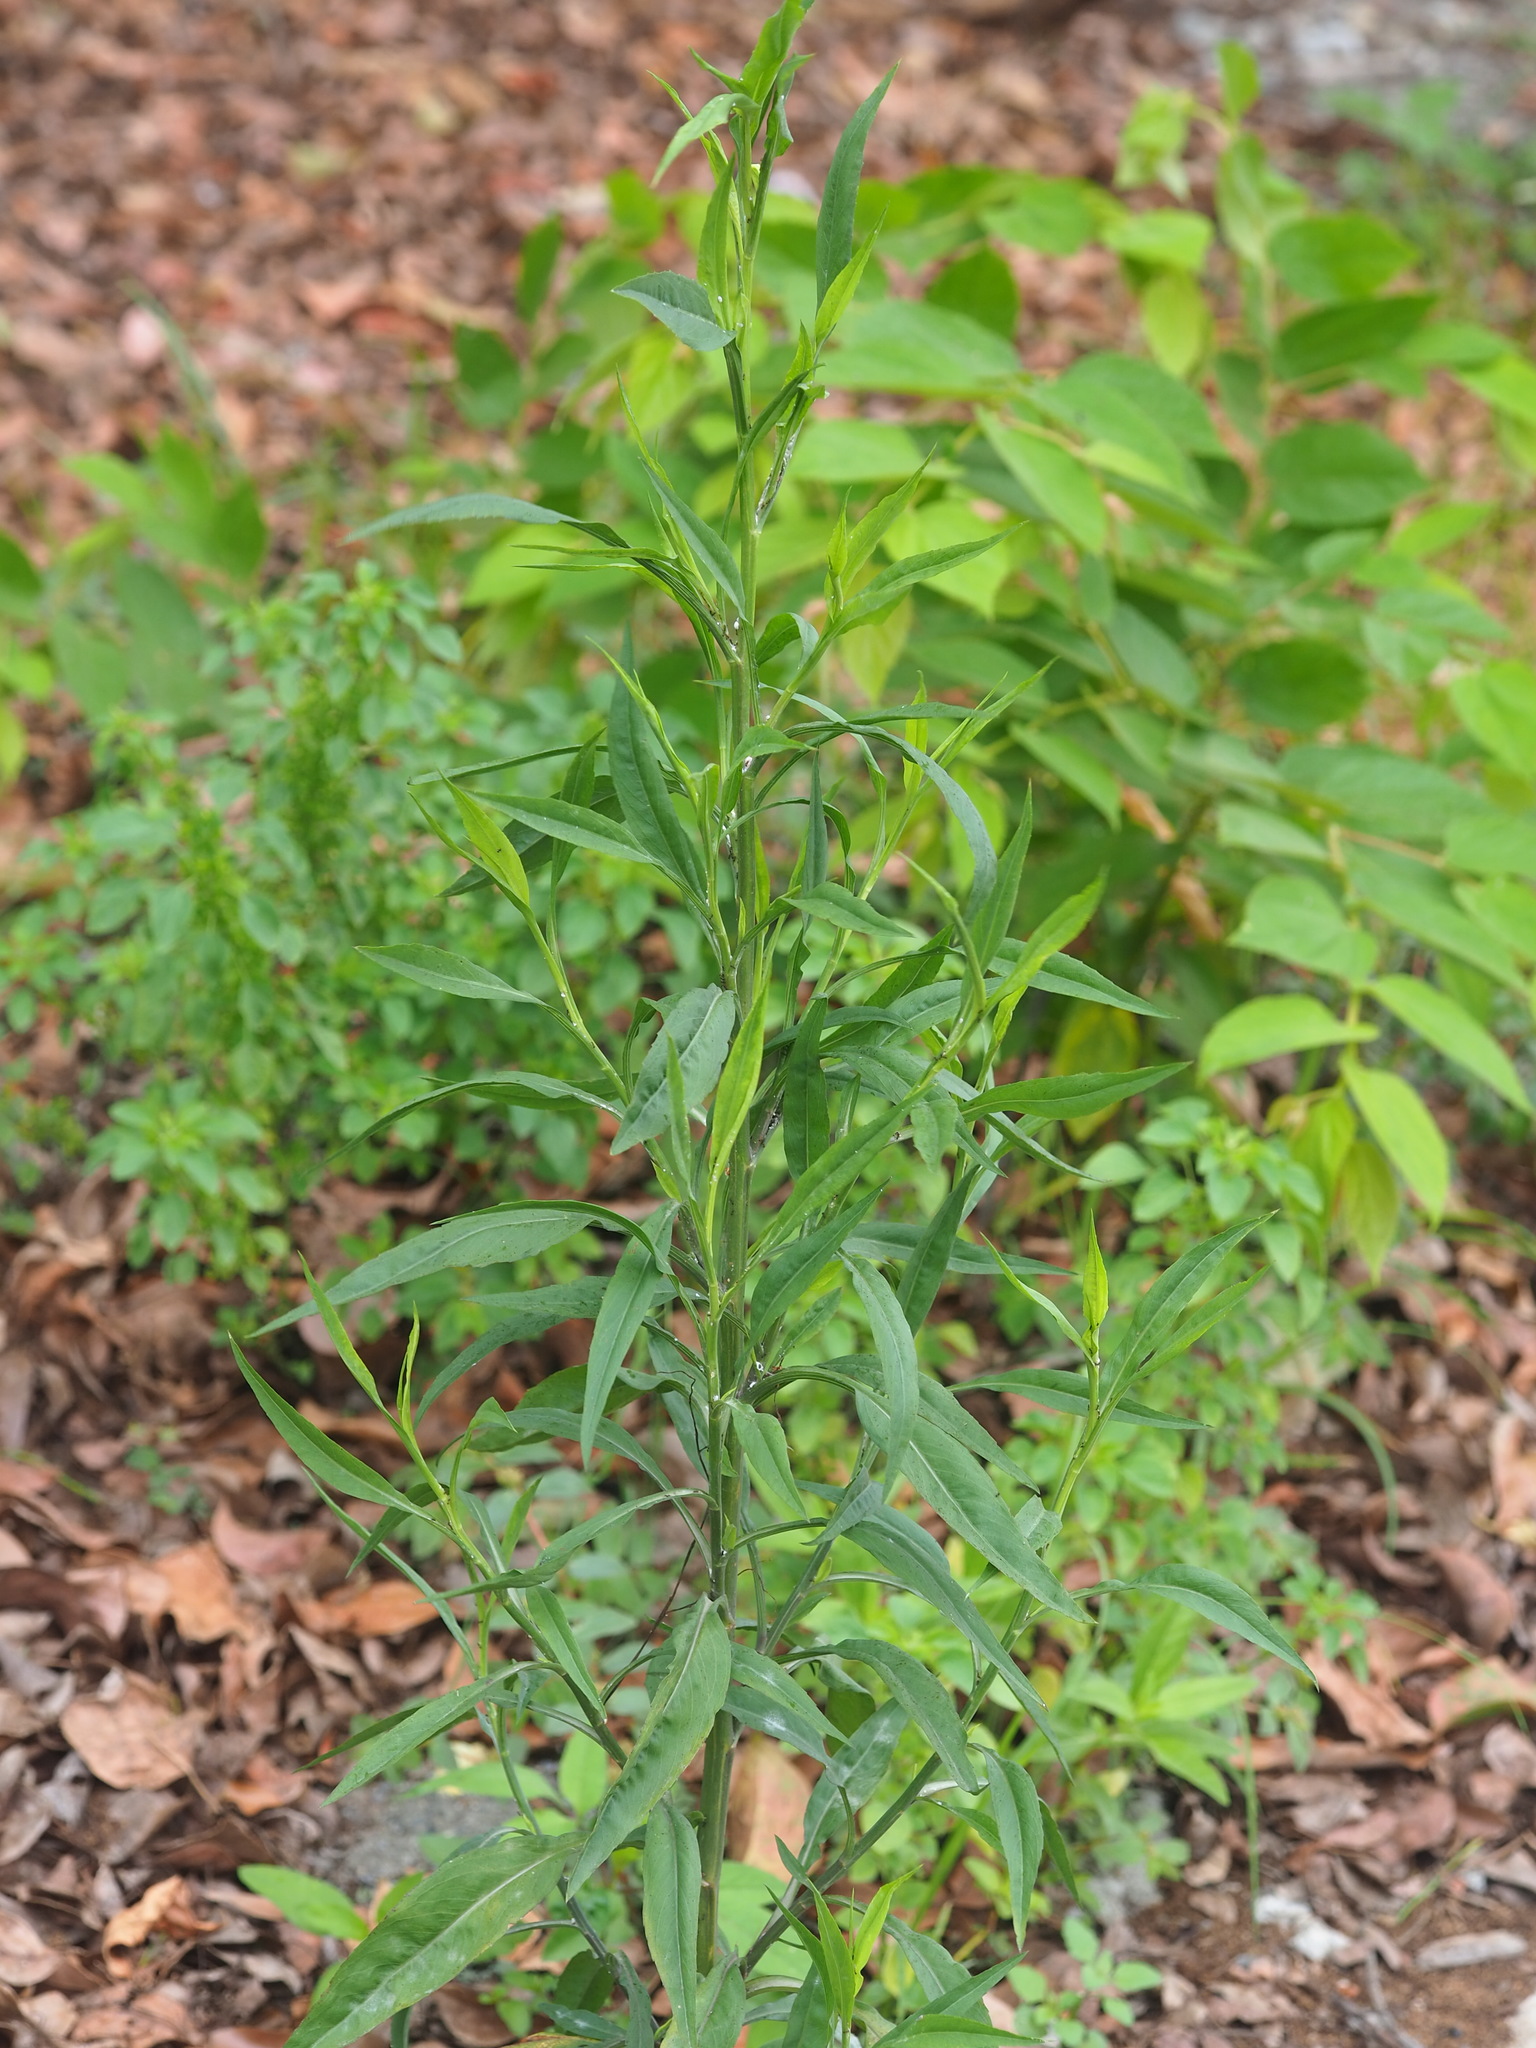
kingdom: Plantae
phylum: Tracheophyta
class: Magnoliopsida
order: Asterales
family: Asteraceae
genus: Symphyotrichum
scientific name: Symphyotrichum subulatum
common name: Annual saltmarsh aster
